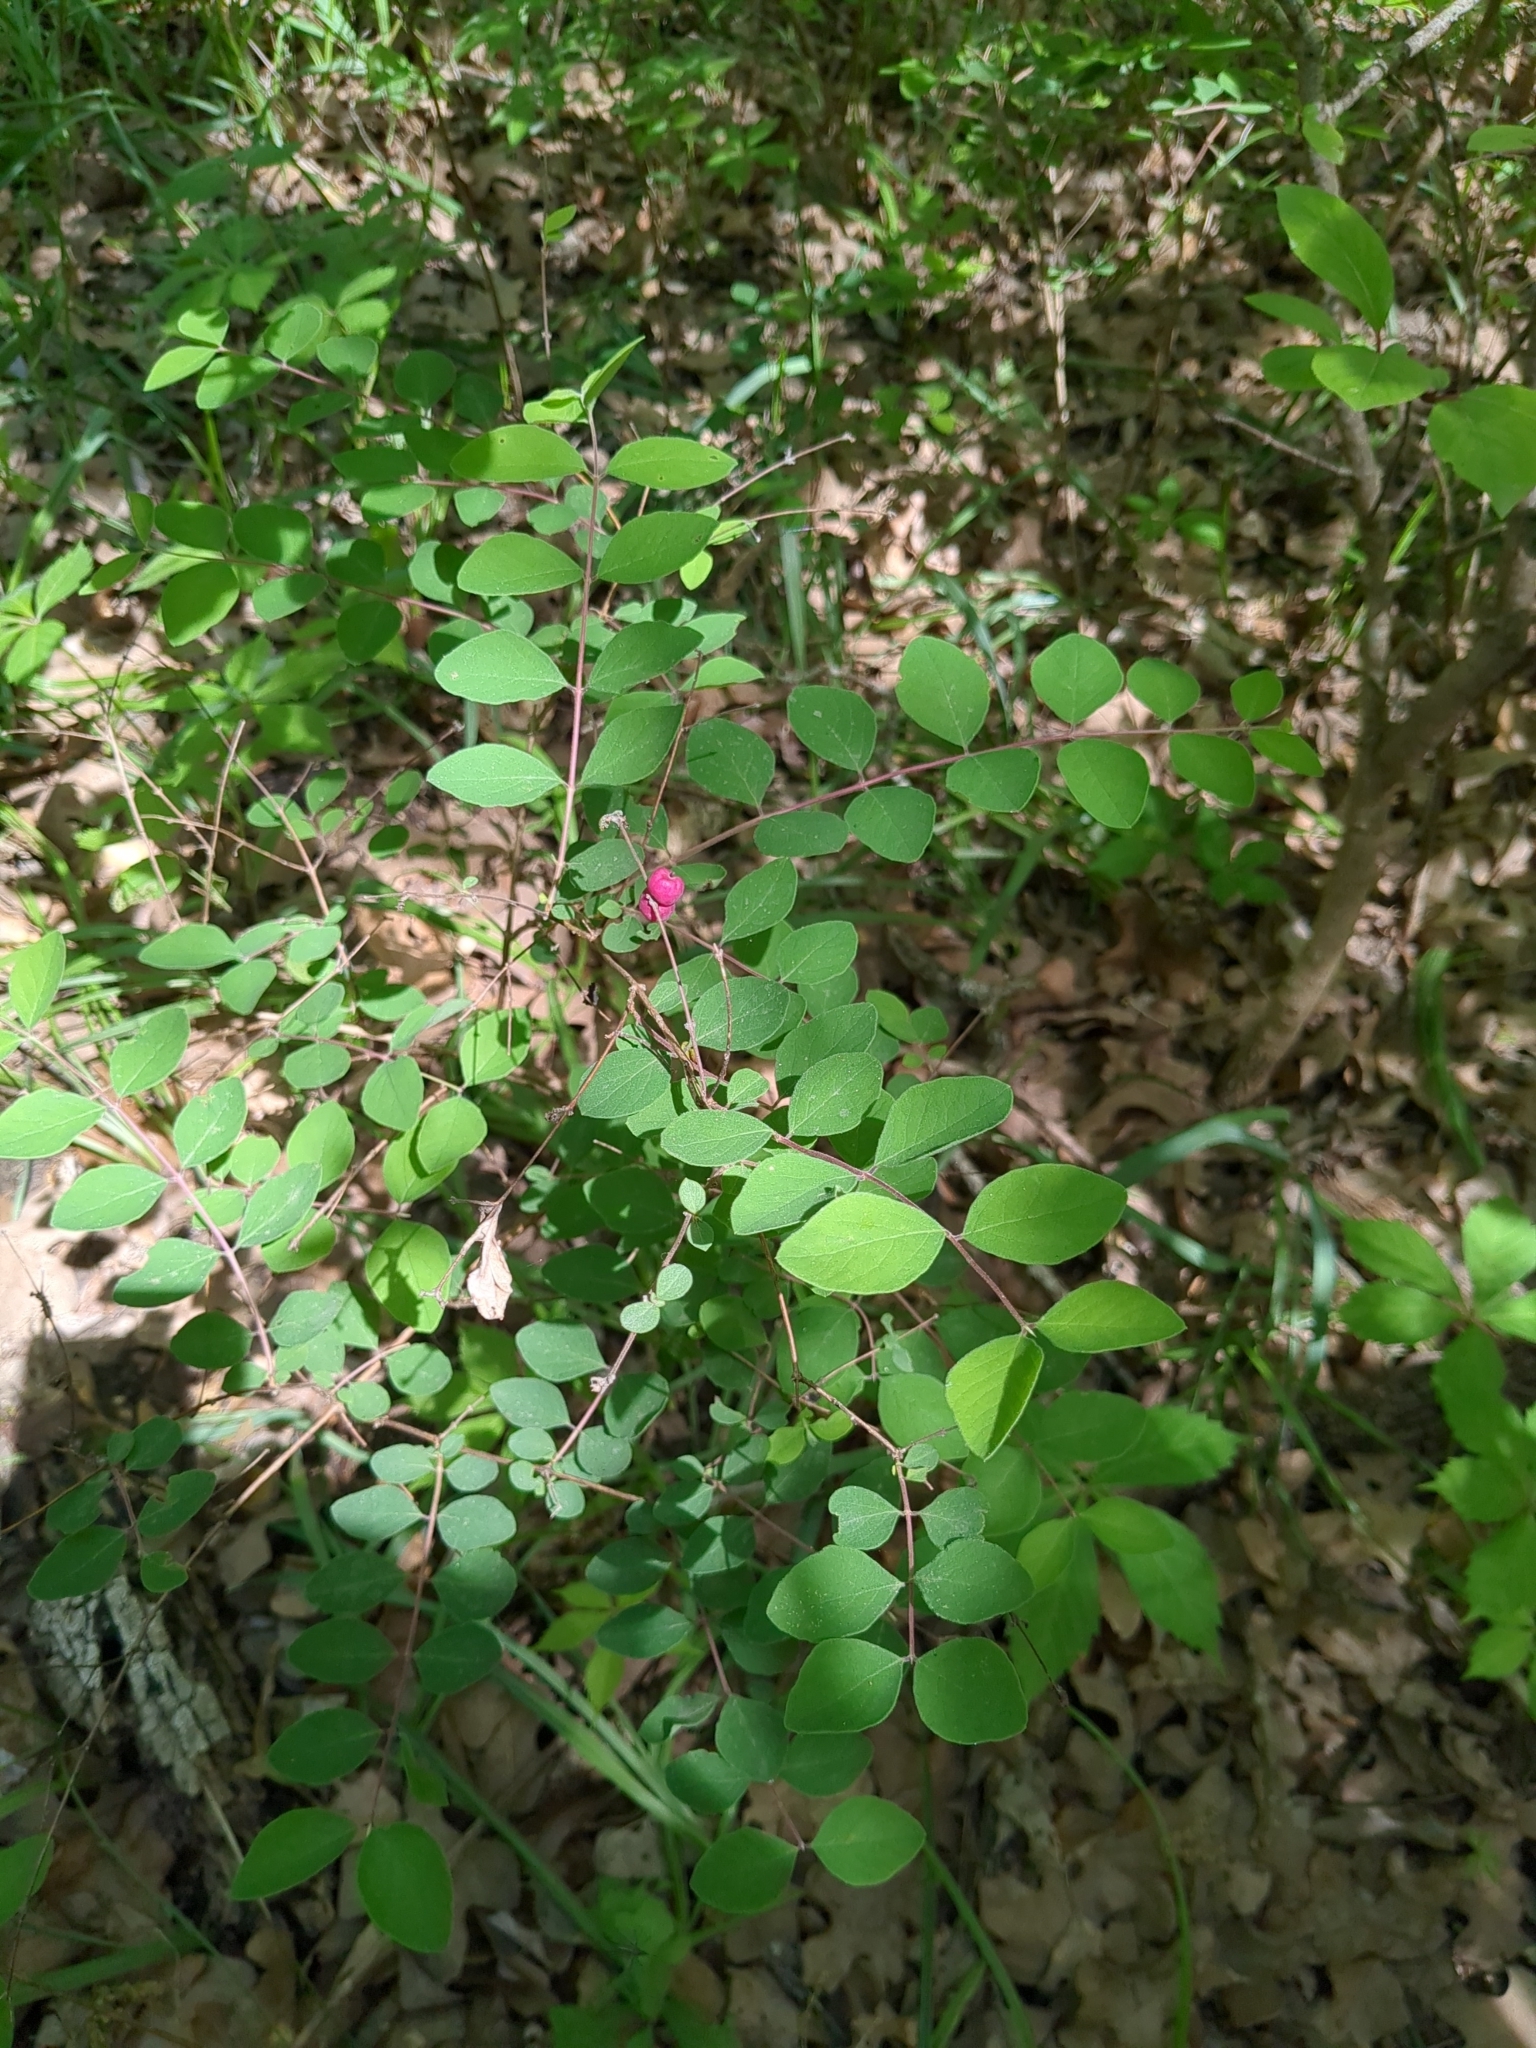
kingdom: Plantae
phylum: Tracheophyta
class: Magnoliopsida
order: Dipsacales
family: Caprifoliaceae
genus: Symphoricarpos
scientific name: Symphoricarpos orbiculatus
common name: Coralberry
